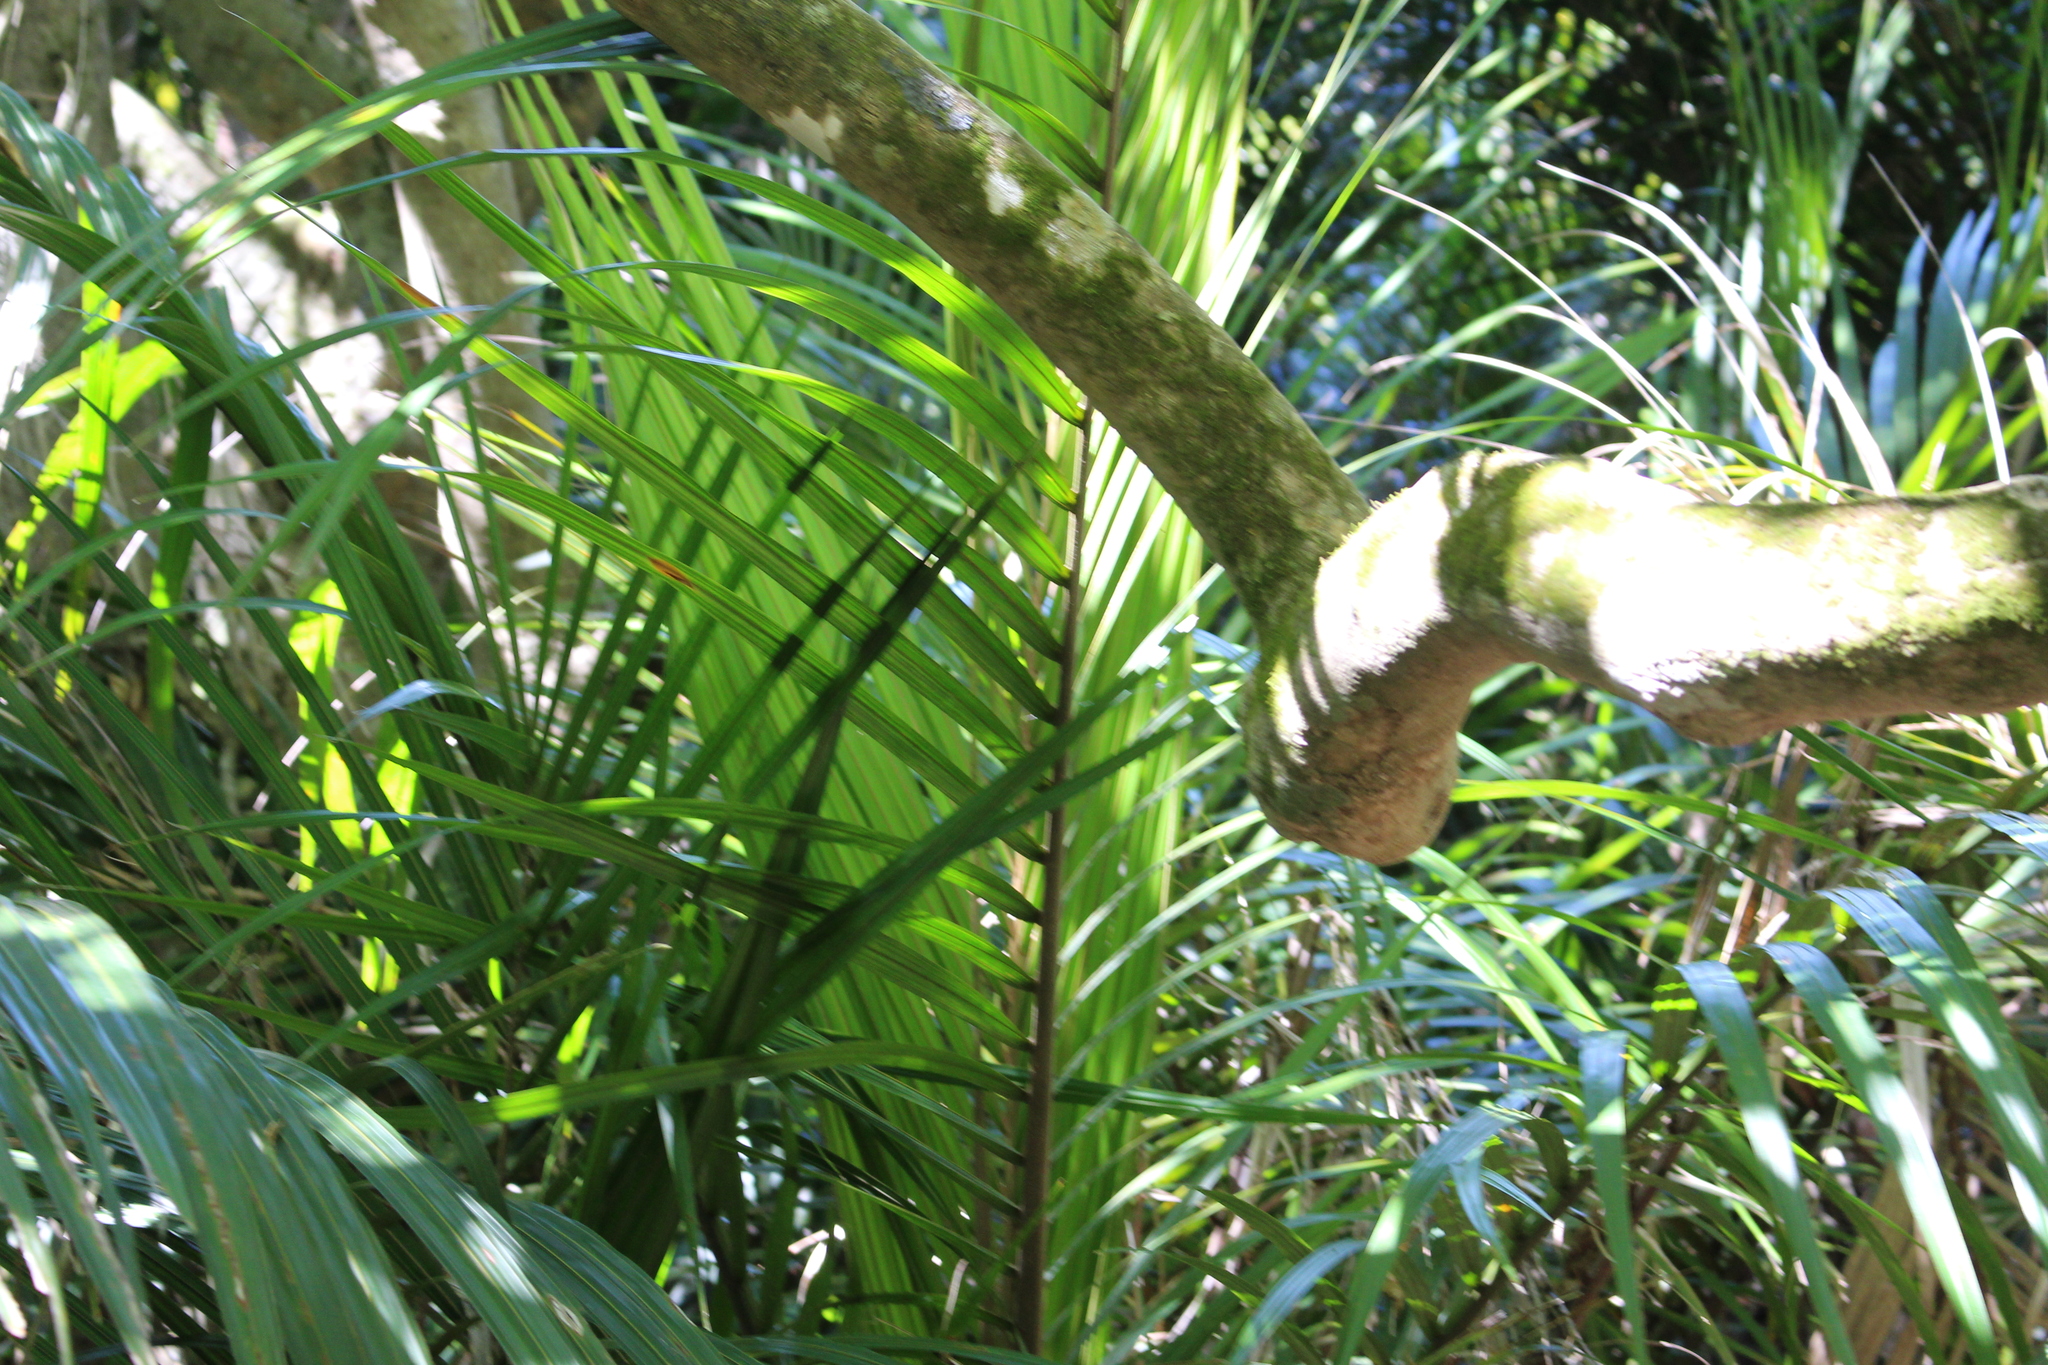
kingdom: Plantae
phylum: Tracheophyta
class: Liliopsida
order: Arecales
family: Arecaceae
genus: Rhopalostylis
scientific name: Rhopalostylis sapida
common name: Feather-duster palm
